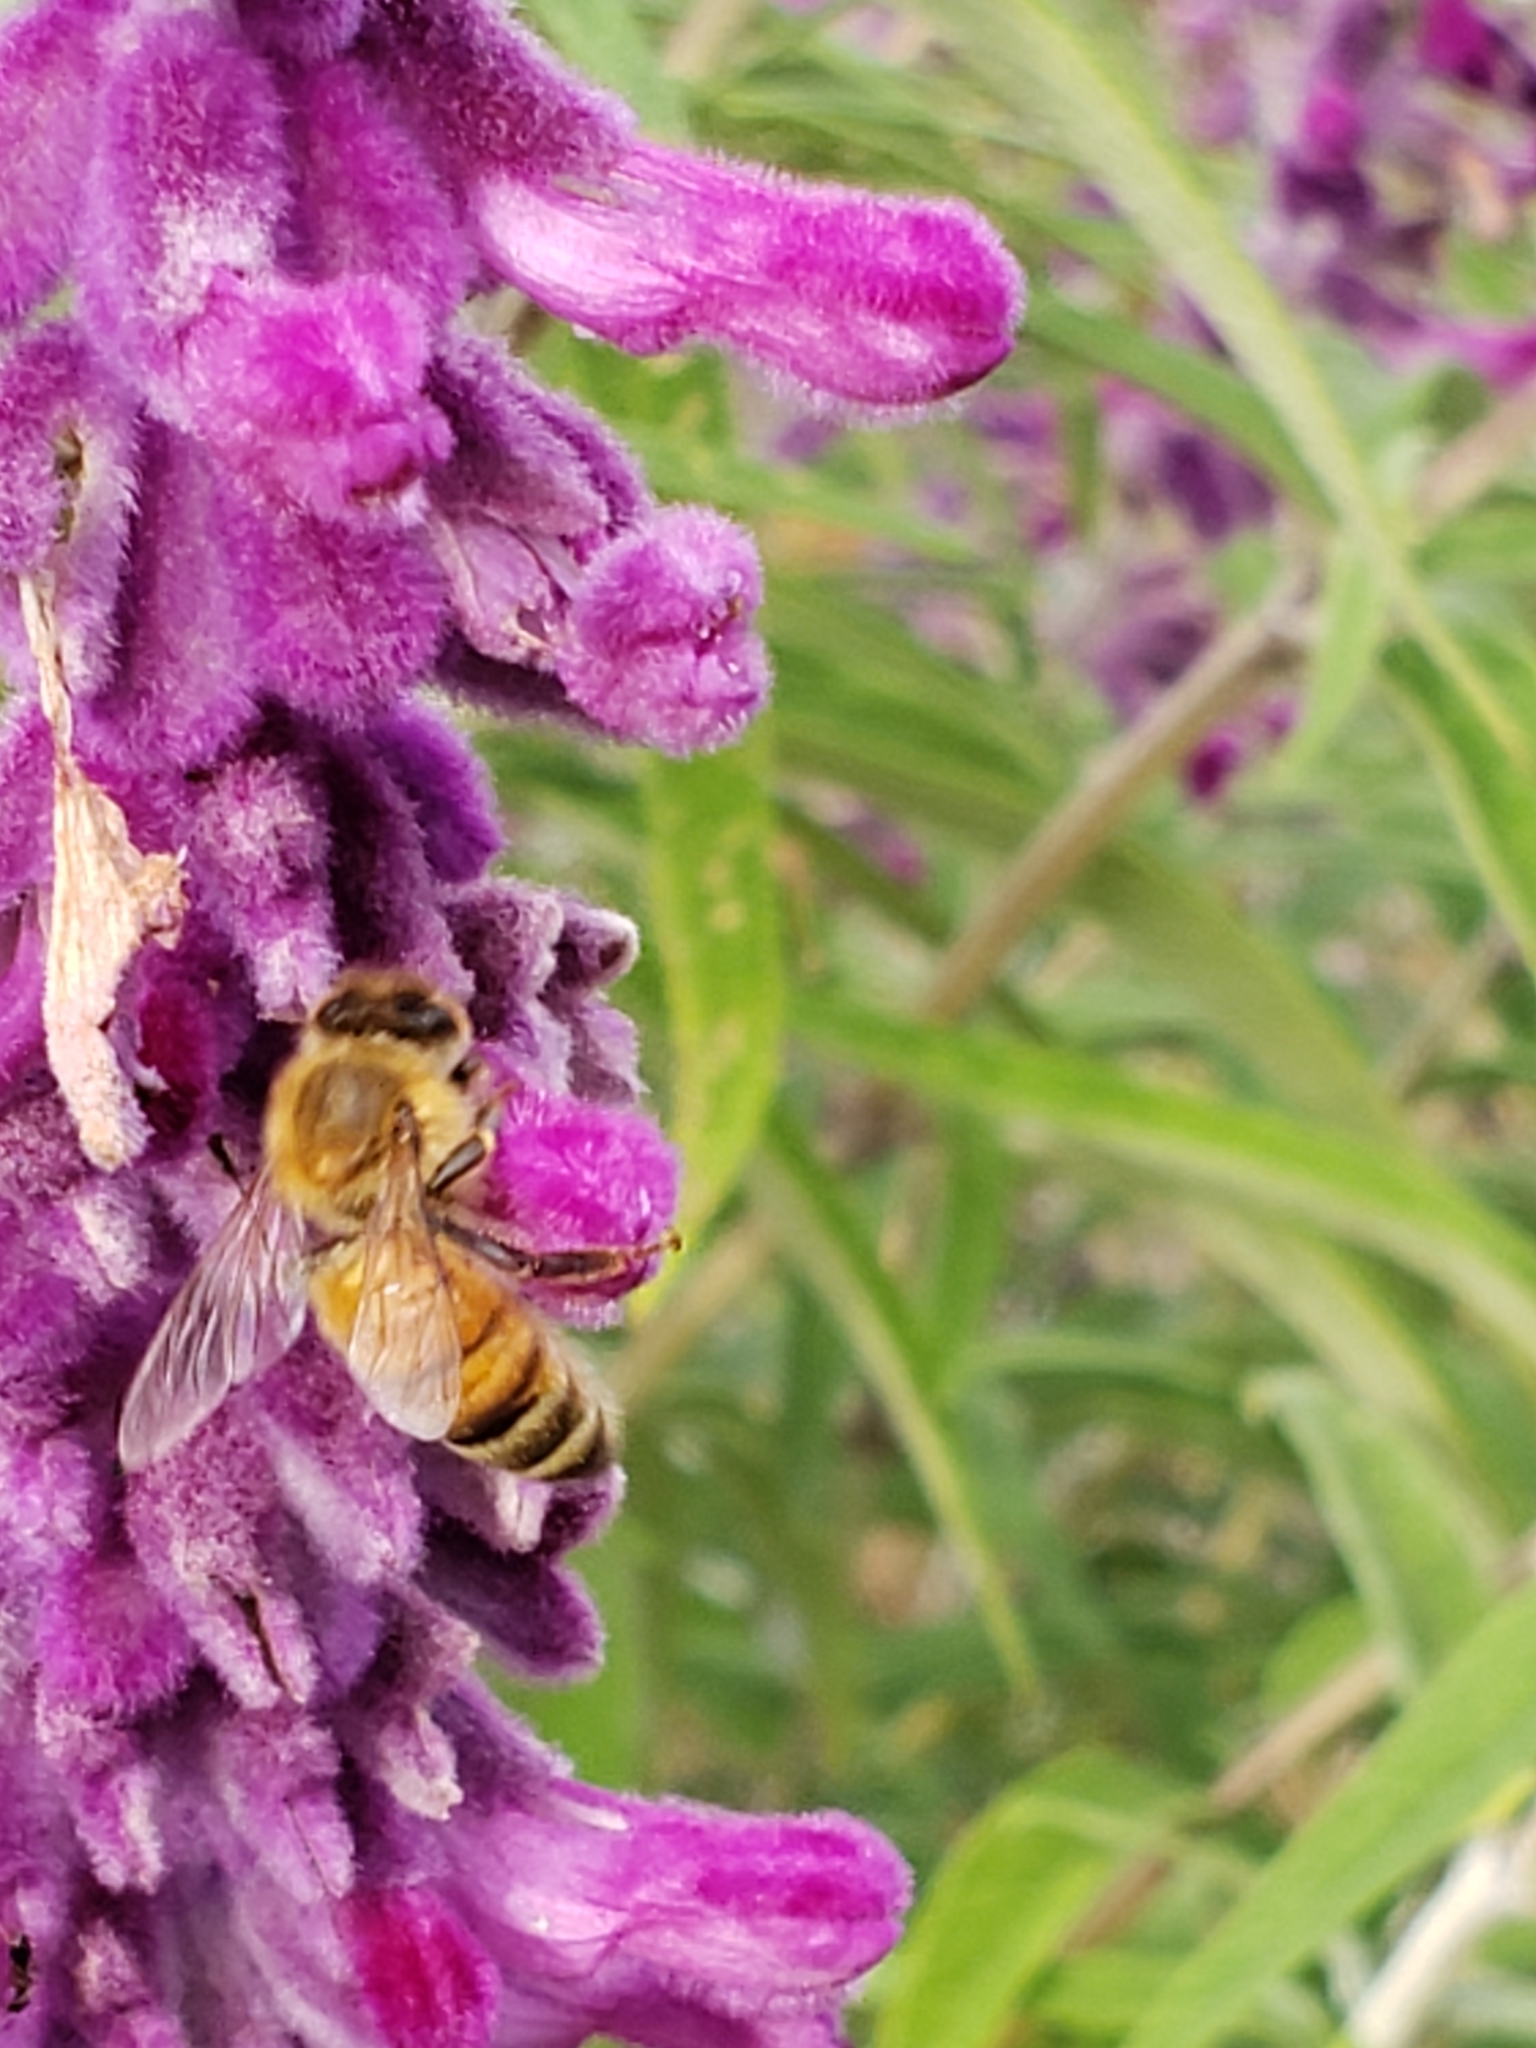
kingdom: Animalia
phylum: Arthropoda
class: Insecta
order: Hymenoptera
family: Apidae
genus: Apis
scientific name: Apis mellifera
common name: Honey bee
